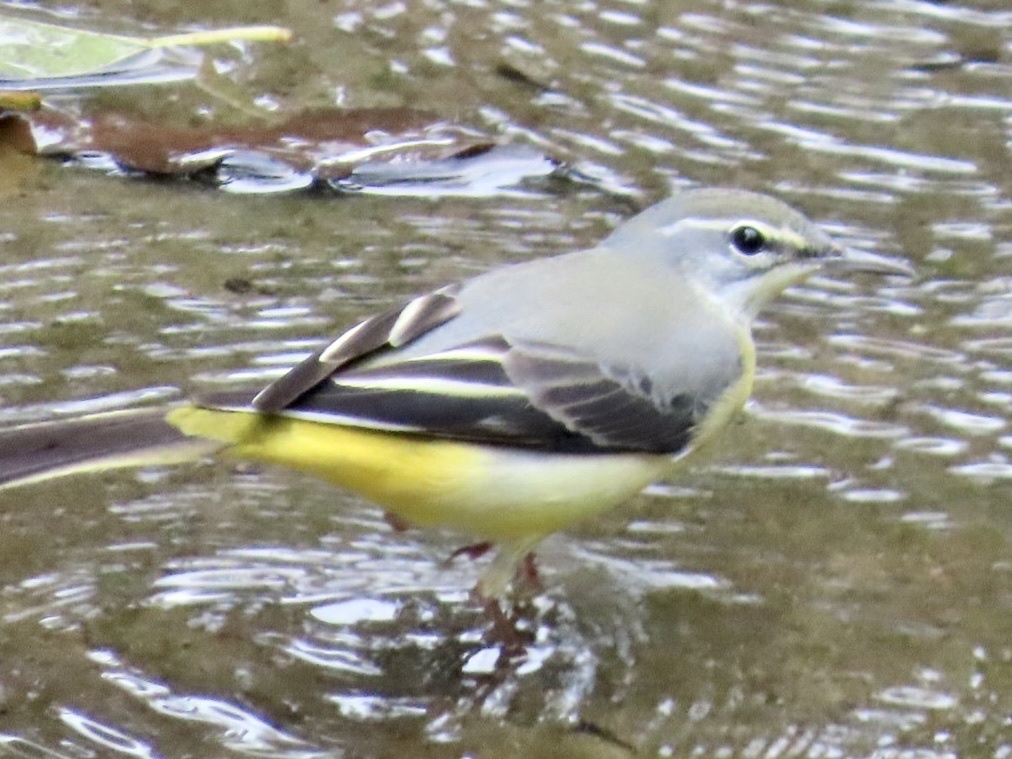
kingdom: Animalia
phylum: Chordata
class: Aves
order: Passeriformes
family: Motacillidae
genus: Motacilla
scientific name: Motacilla cinerea
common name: Grey wagtail
